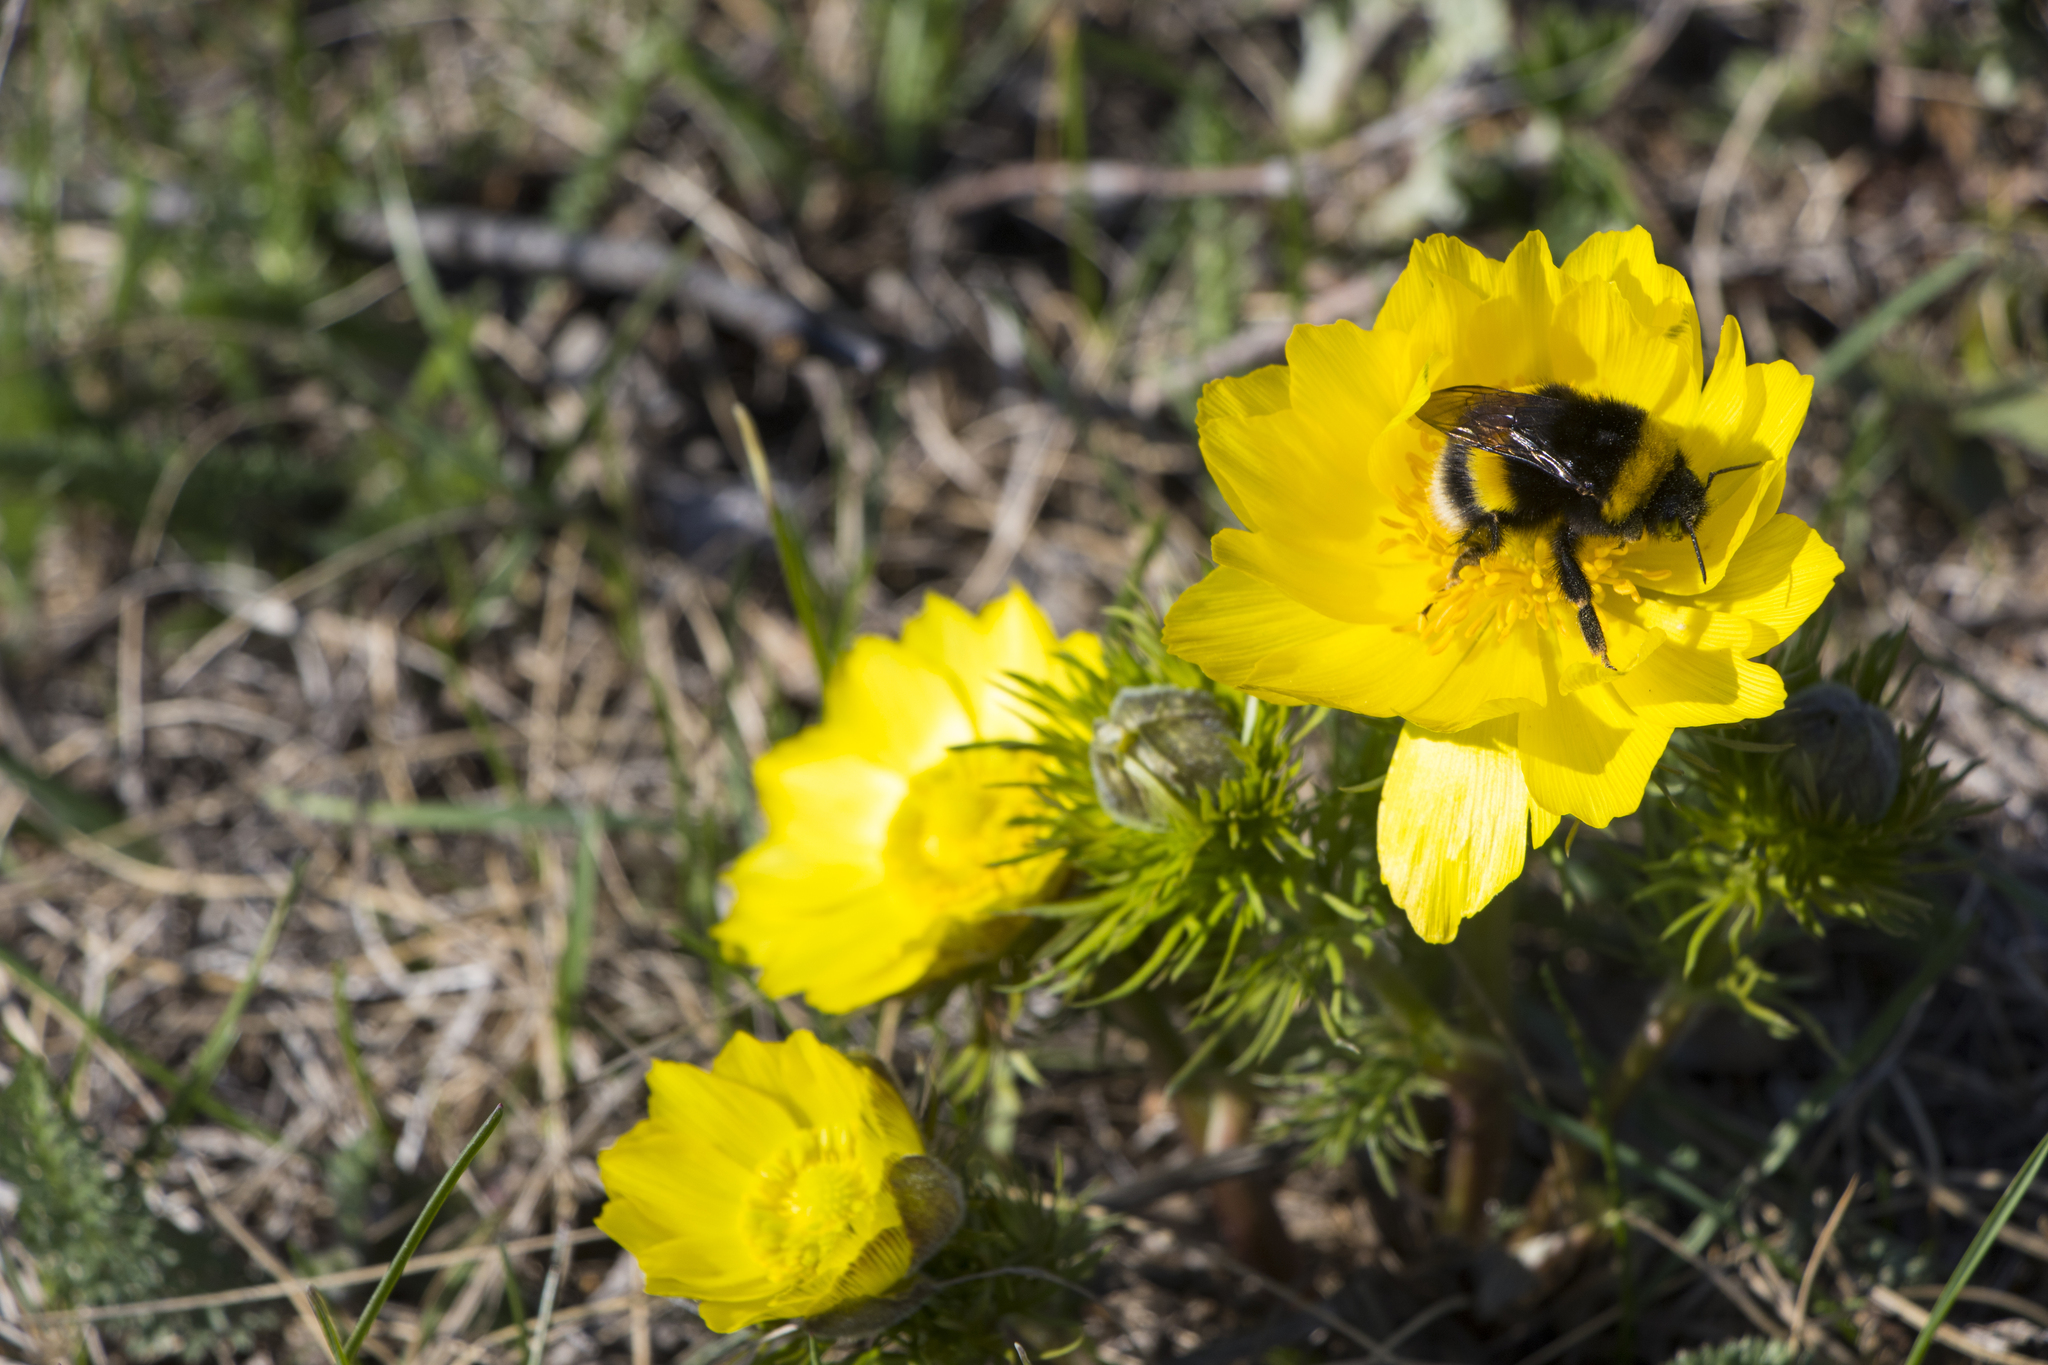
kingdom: Plantae
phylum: Tracheophyta
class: Magnoliopsida
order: Ranunculales
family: Ranunculaceae
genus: Adonis
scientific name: Adonis vernalis
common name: Yellow pheasants-eye
